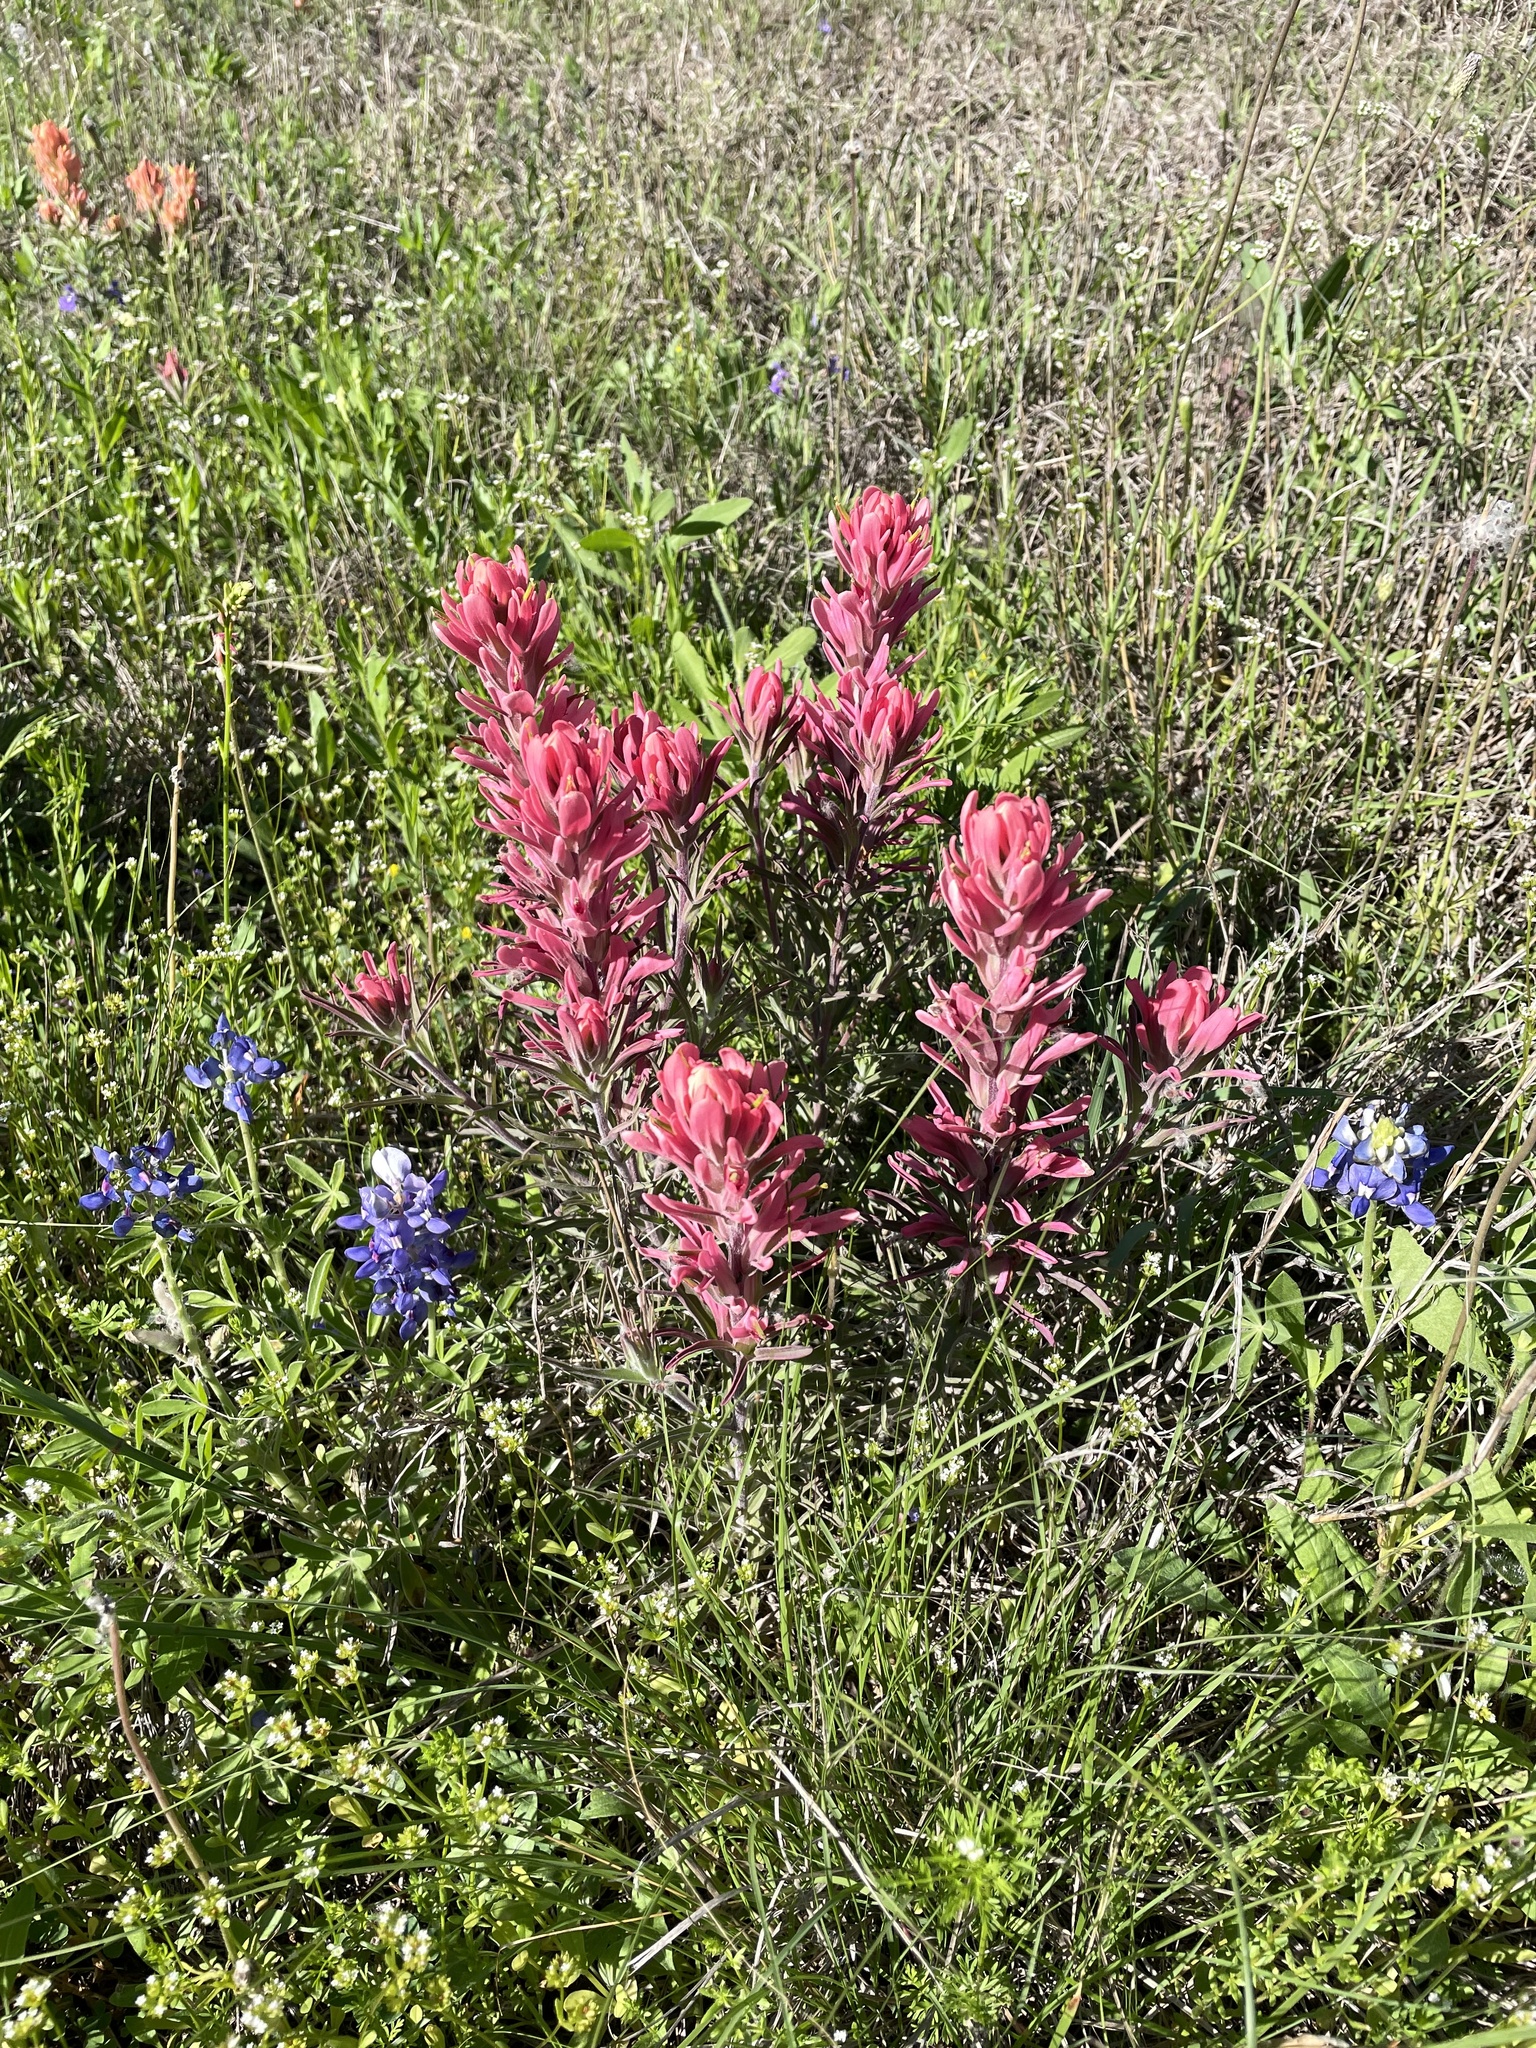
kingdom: Plantae
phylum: Tracheophyta
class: Magnoliopsida
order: Lamiales
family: Orobanchaceae
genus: Castilleja
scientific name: Castilleja purpurea
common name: Plains paintbrush
